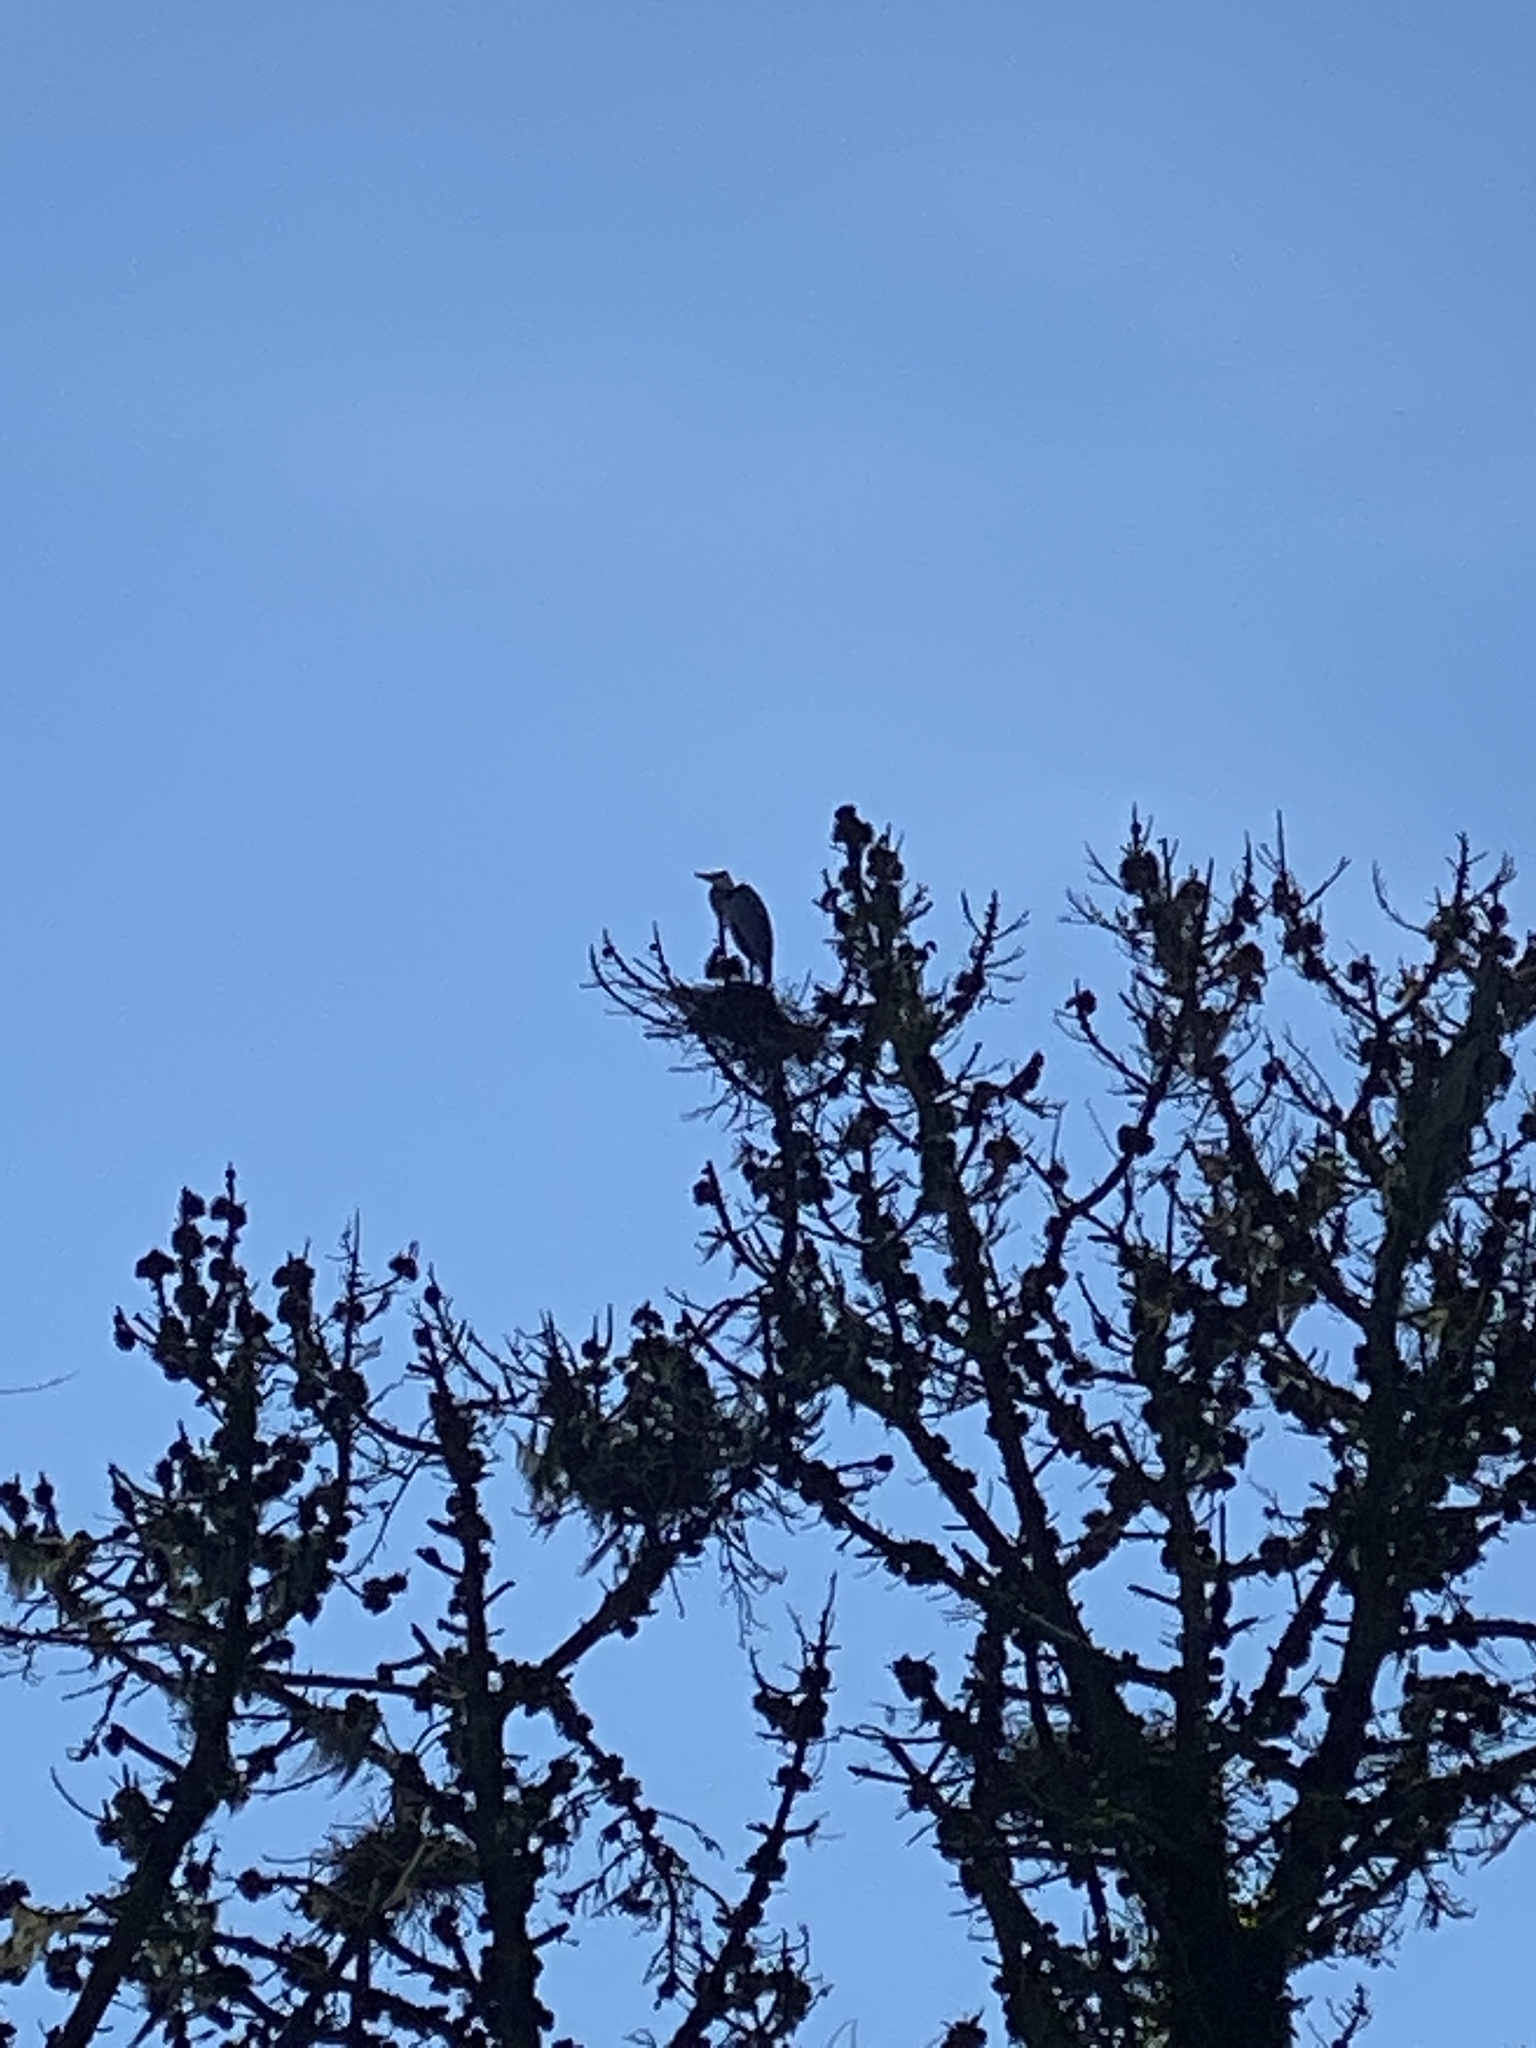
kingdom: Animalia
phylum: Chordata
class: Aves
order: Pelecaniformes
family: Ardeidae
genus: Ardea
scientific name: Ardea herodias
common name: Great blue heron
